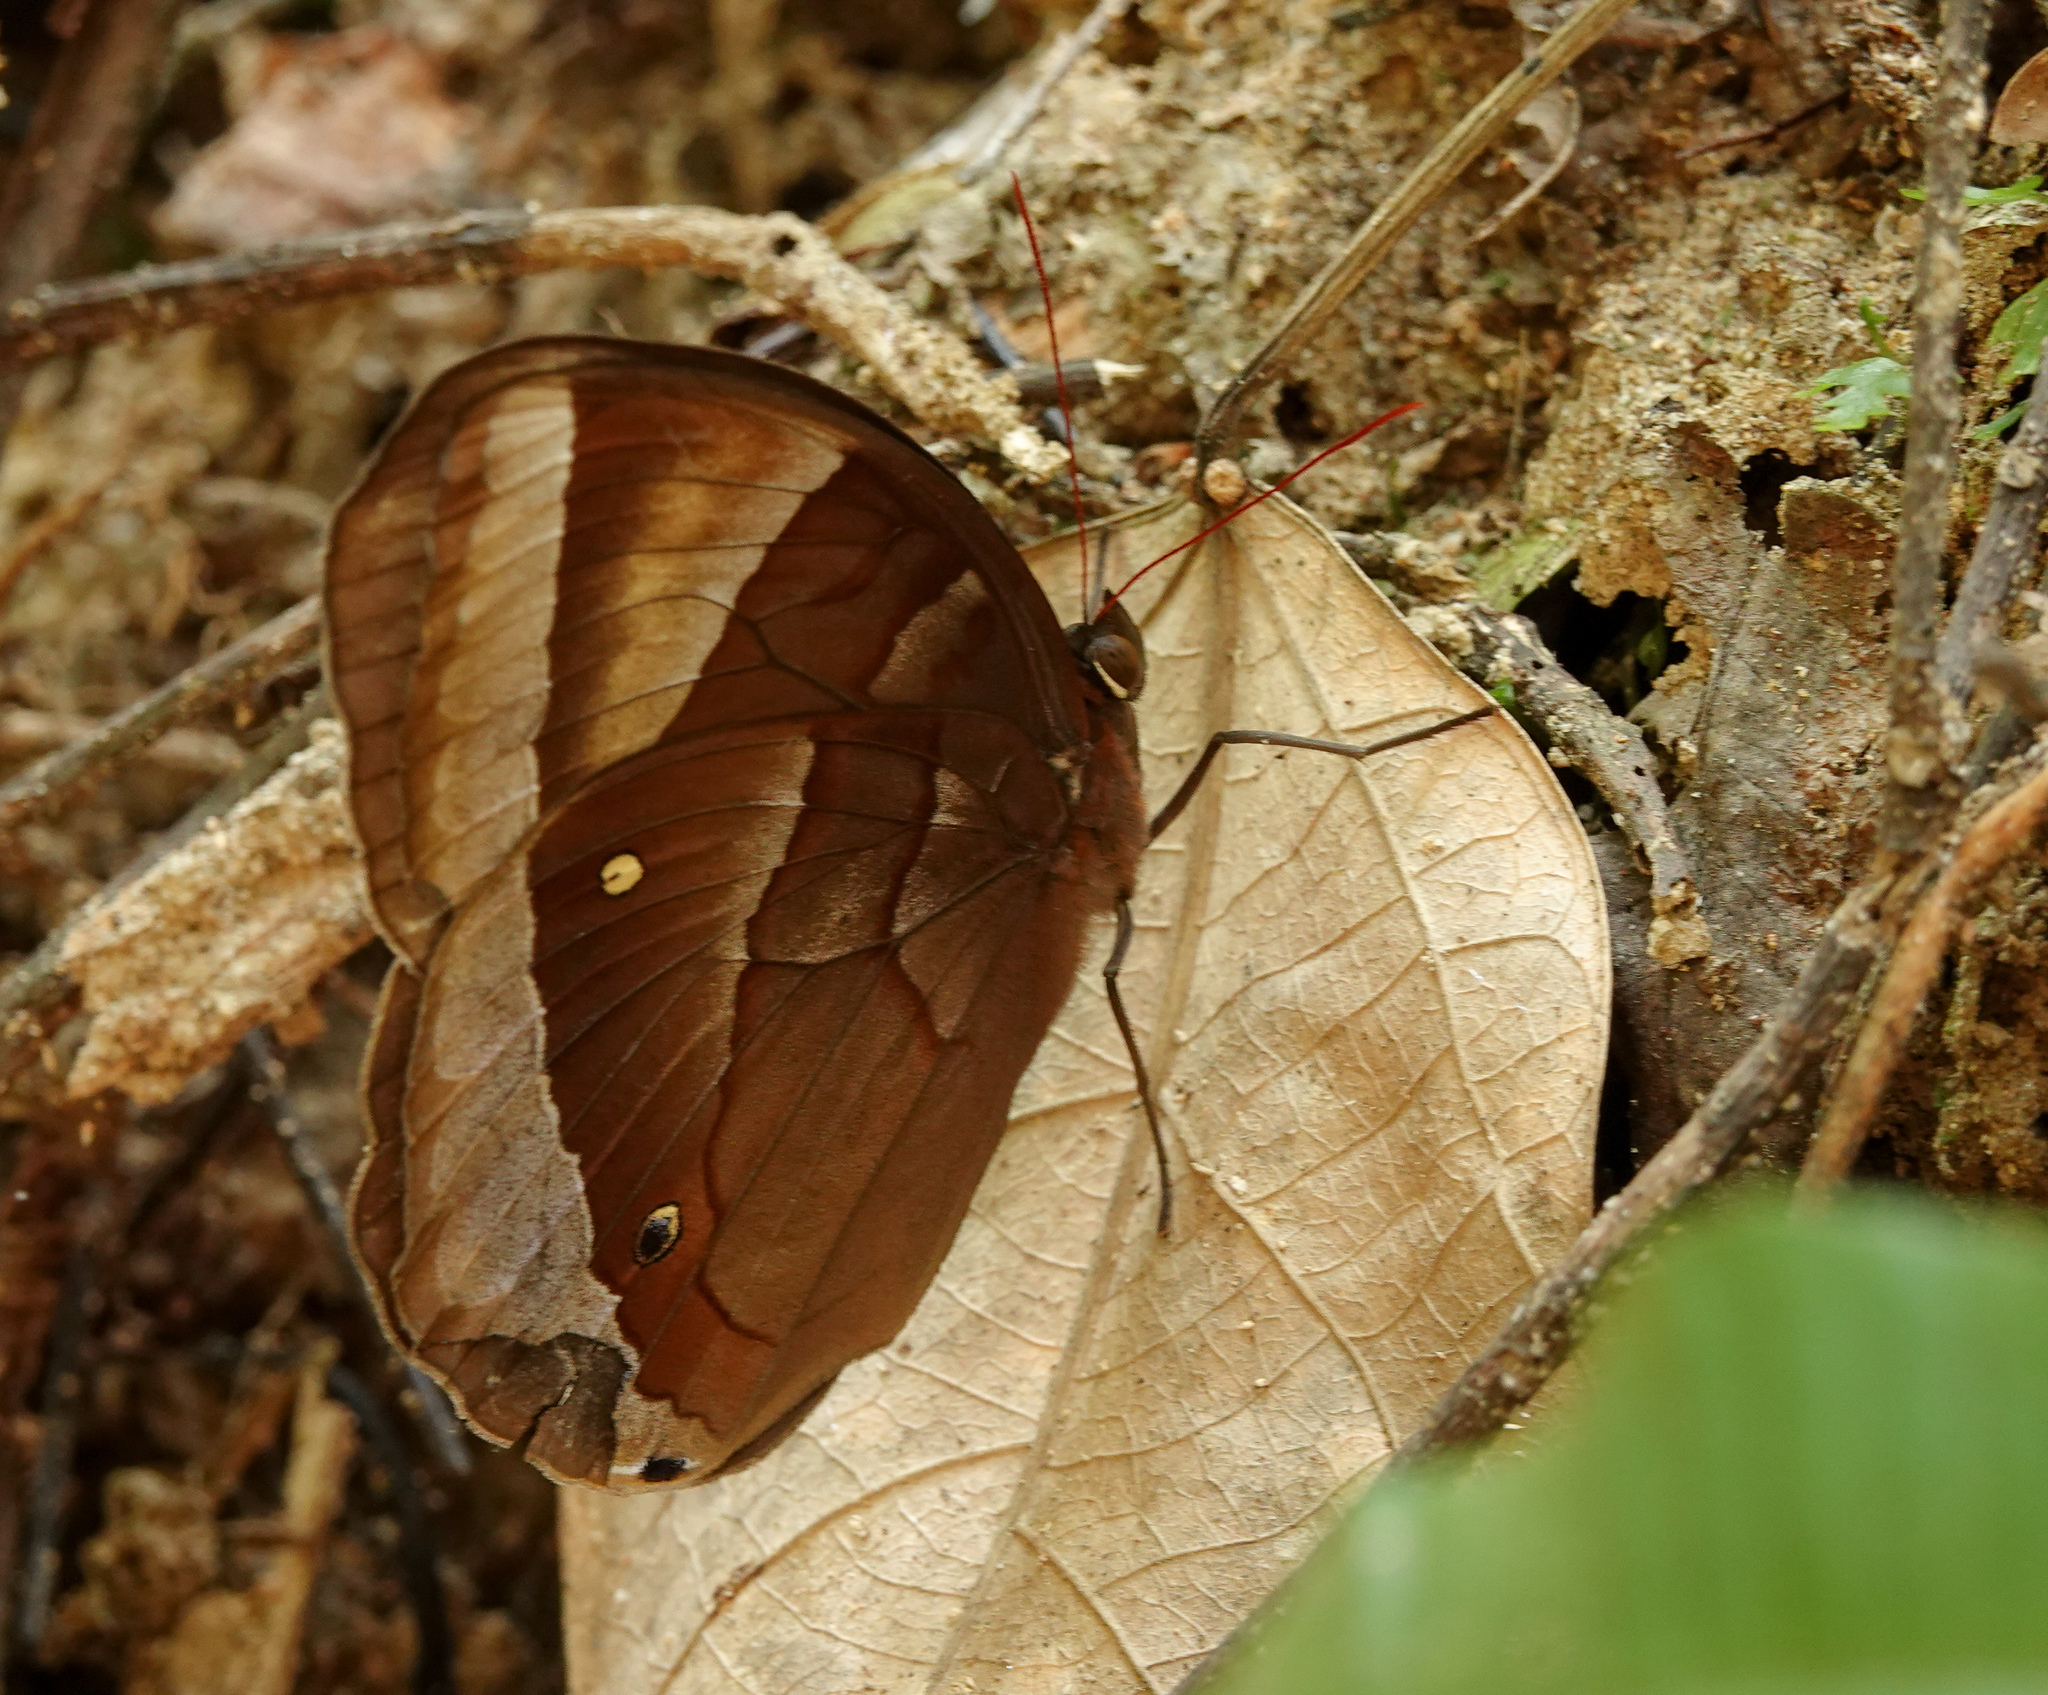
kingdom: Animalia
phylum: Arthropoda
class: Insecta
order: Lepidoptera
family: Nymphalidae
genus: Thaumantis
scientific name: Thaumantis diores
